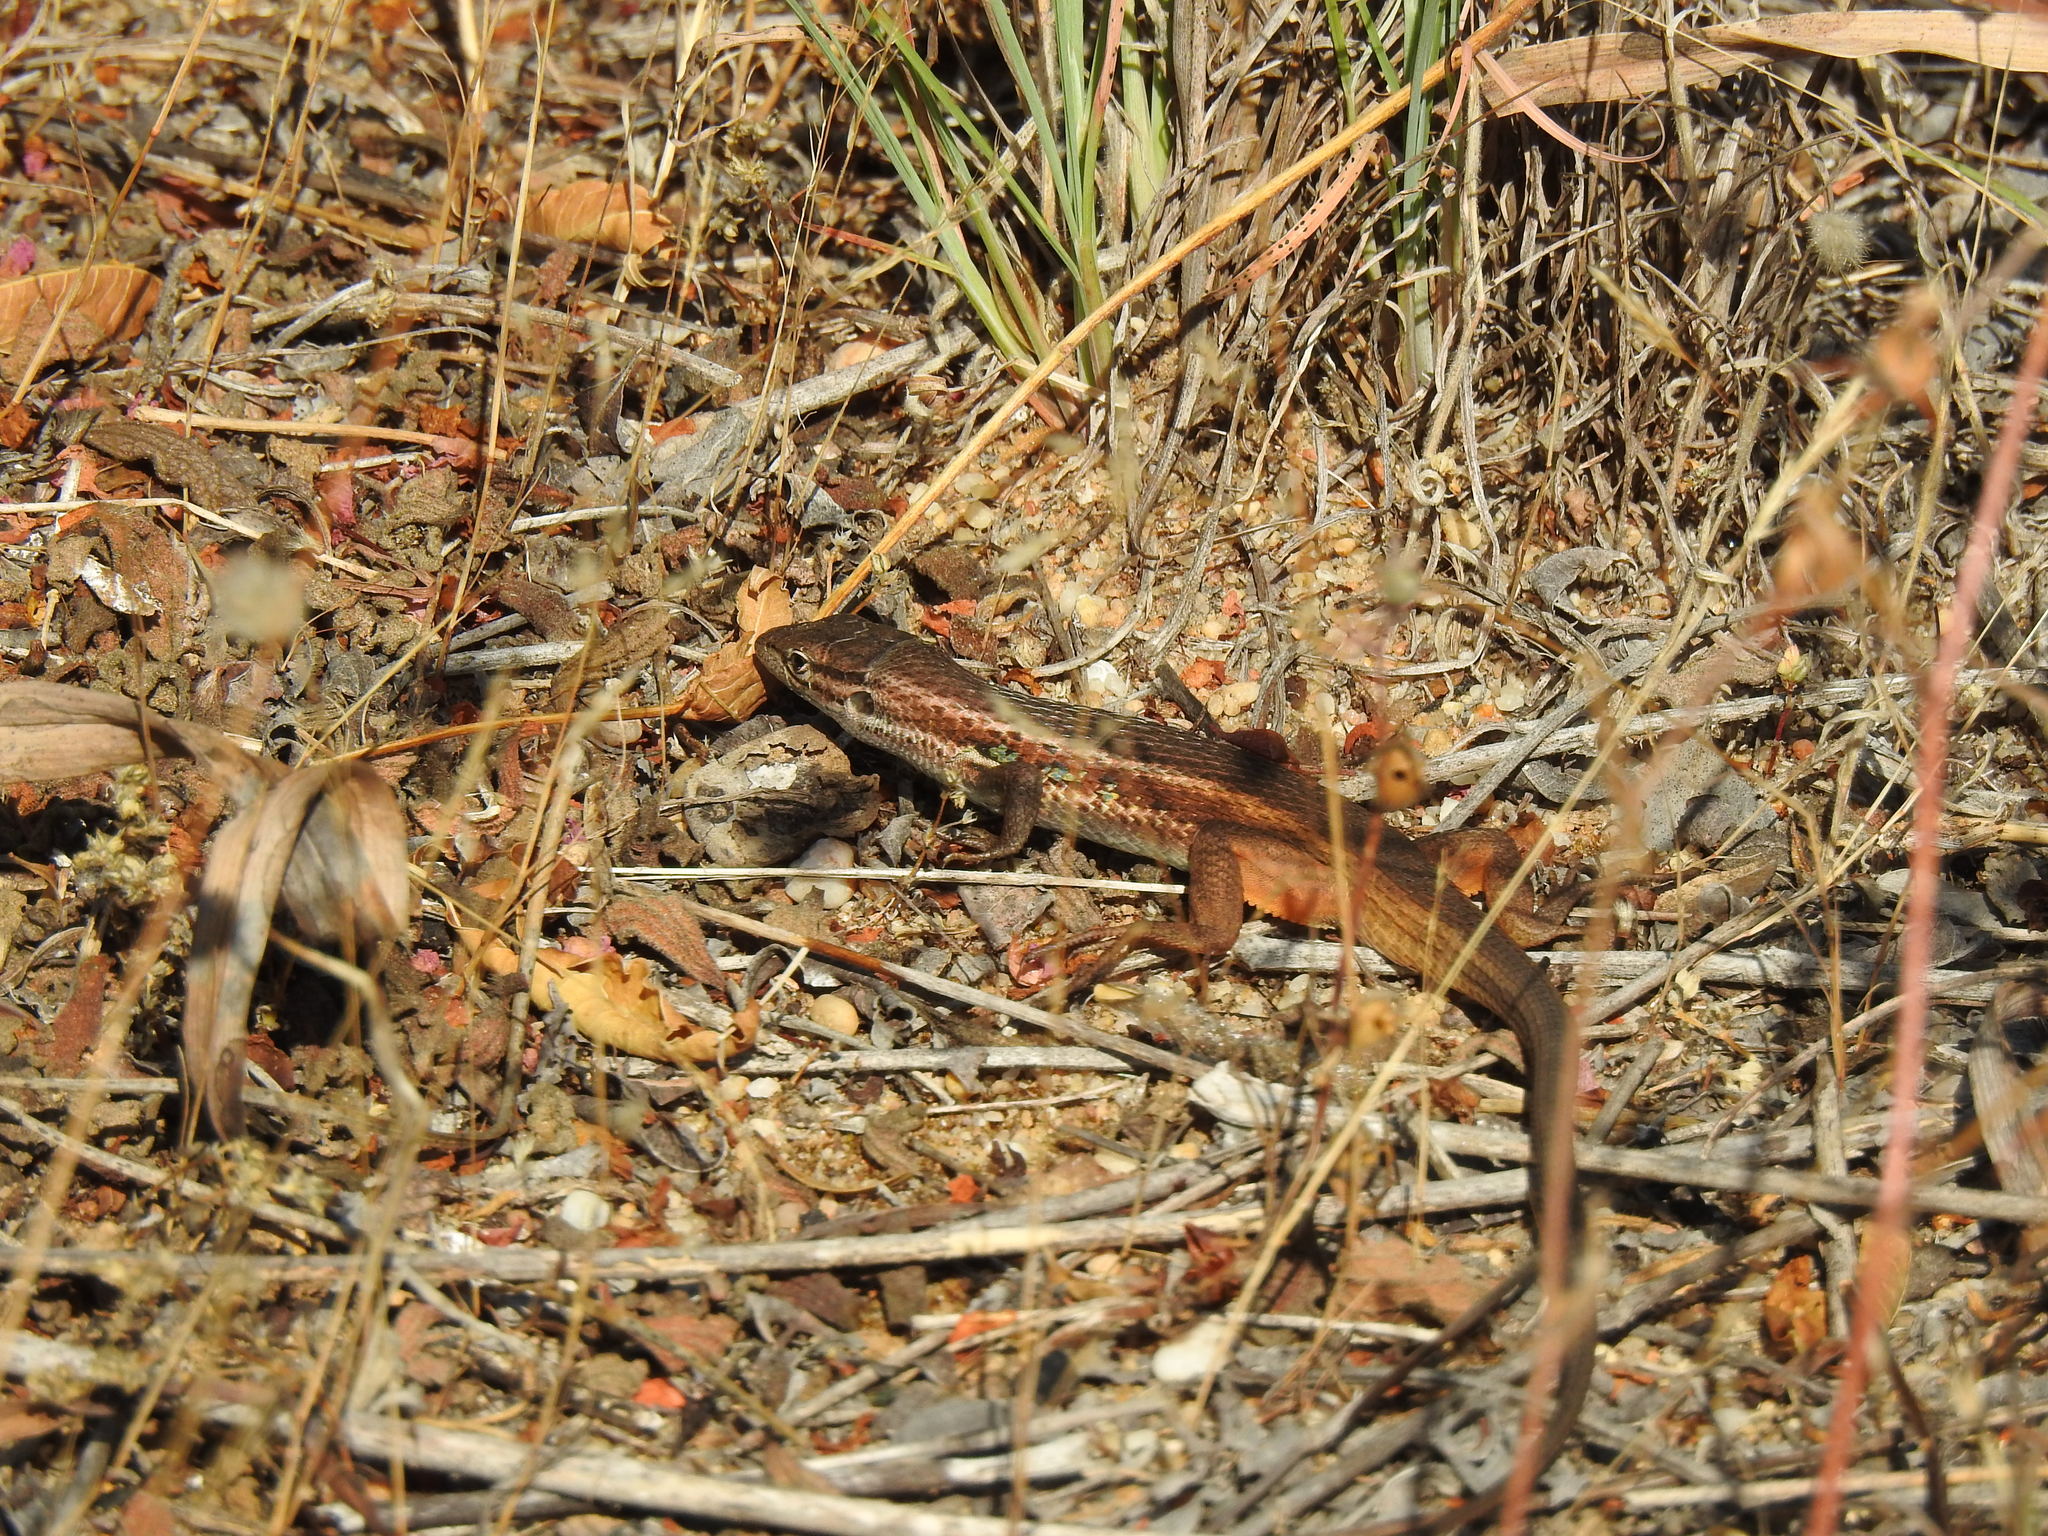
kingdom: Animalia
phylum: Chordata
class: Squamata
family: Lacertidae
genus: Psammodromus
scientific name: Psammodromus algirus
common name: Algerian psammodromus
